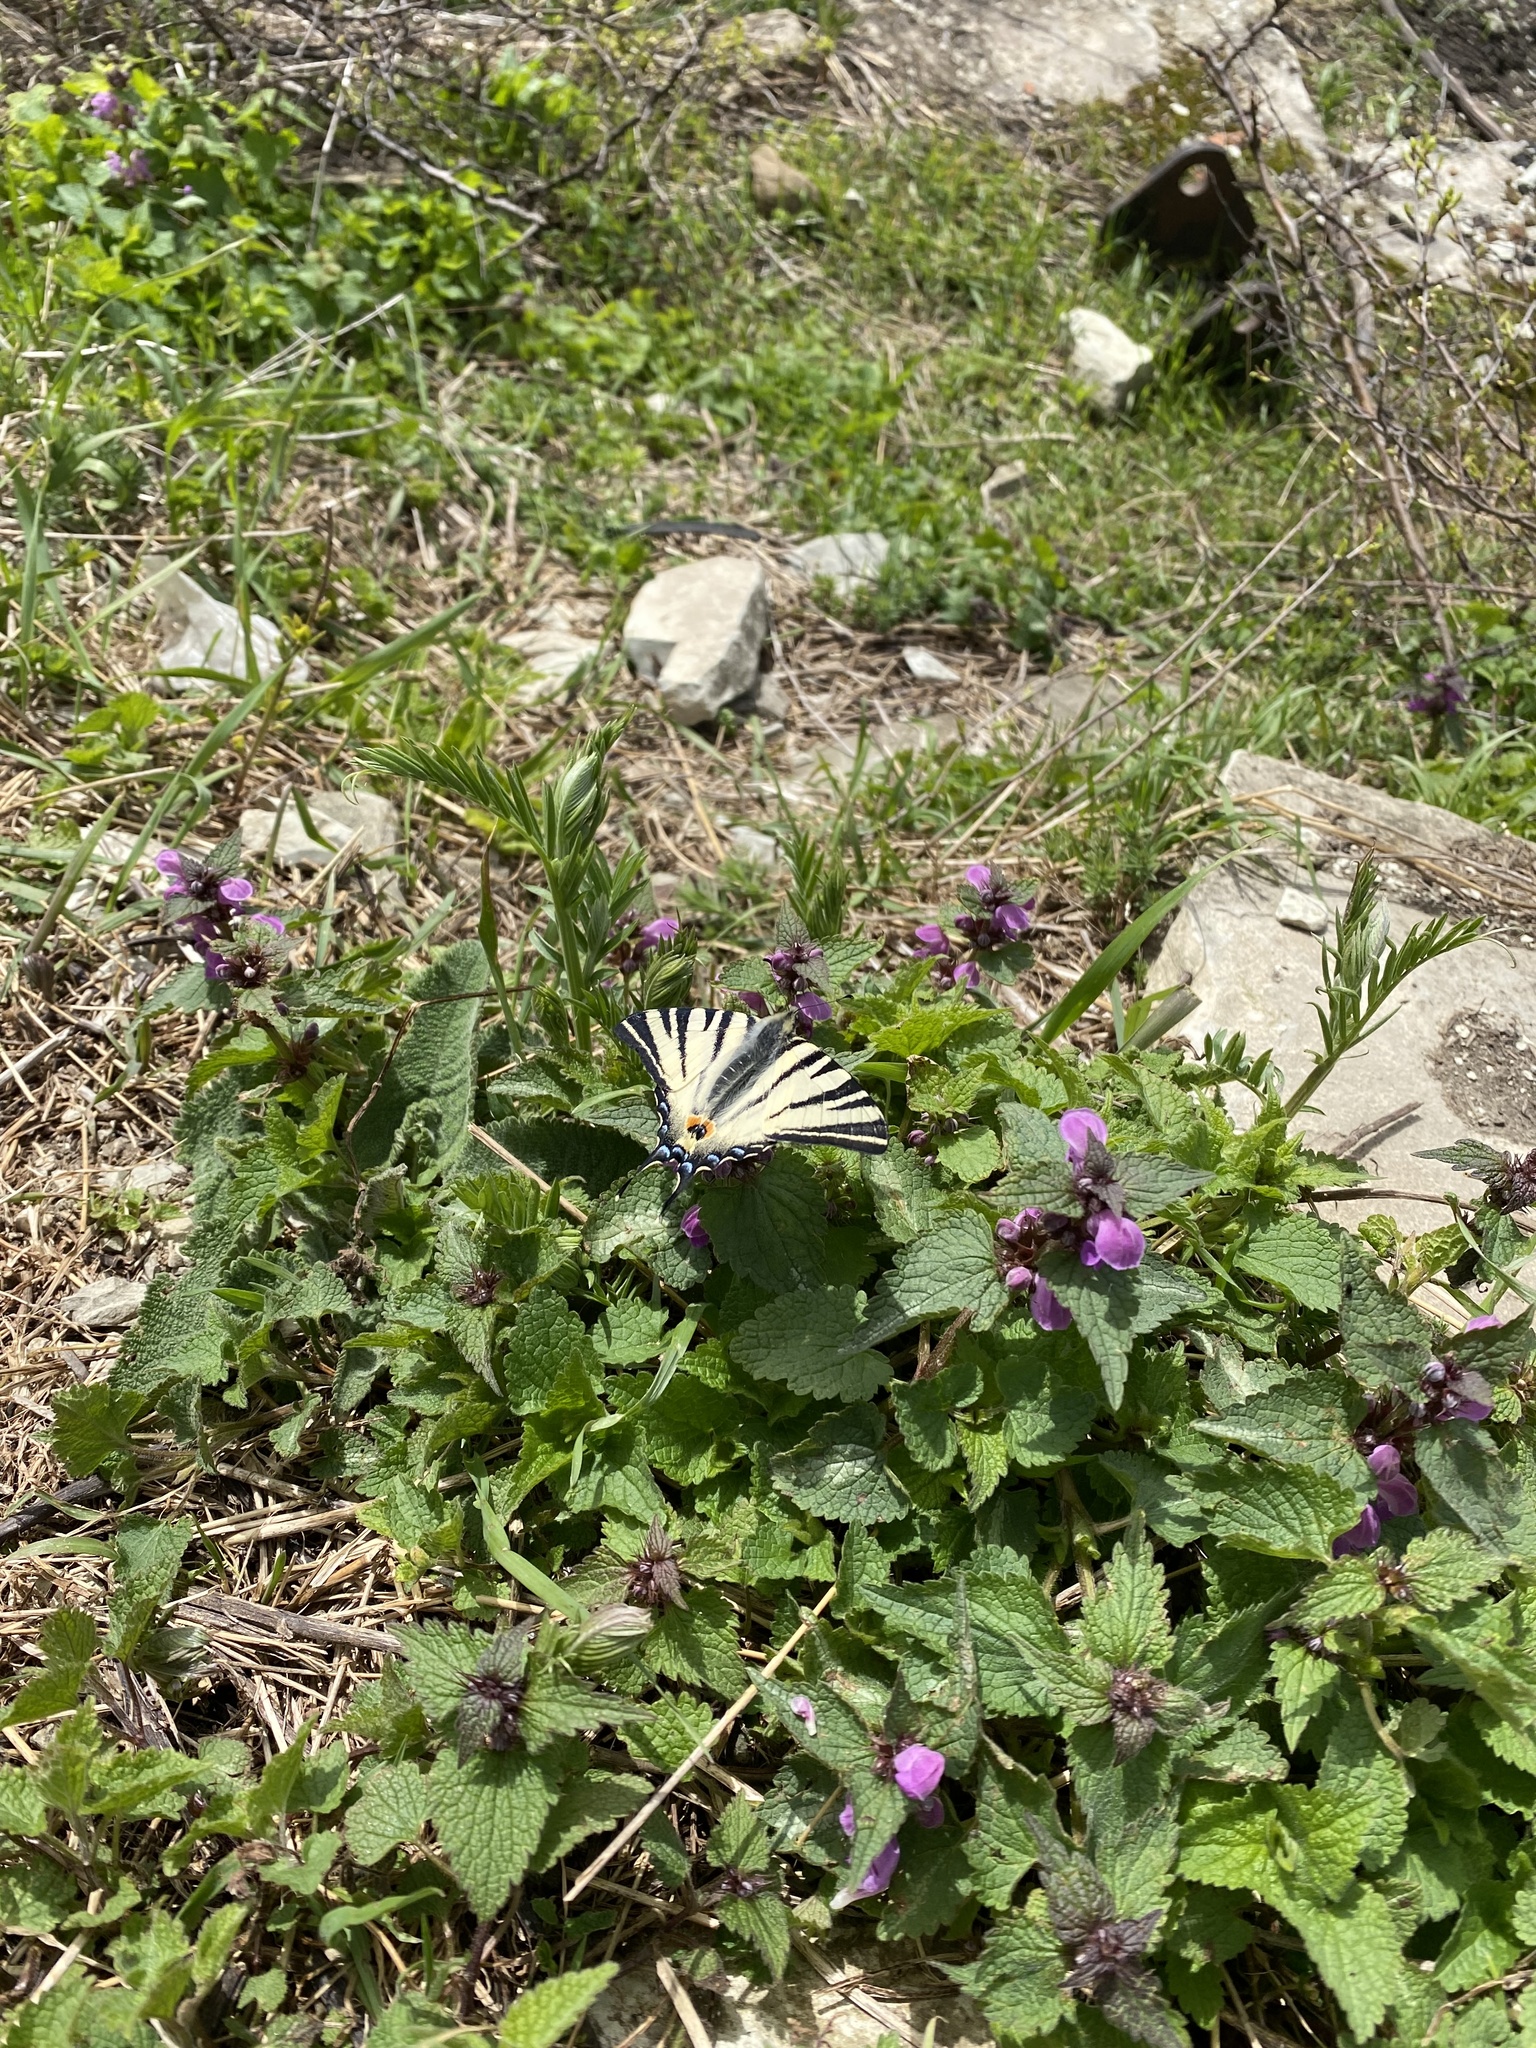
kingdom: Animalia
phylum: Arthropoda
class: Insecta
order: Lepidoptera
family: Papilionidae
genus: Iphiclides
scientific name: Iphiclides podalirius
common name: Scarce swallowtail
